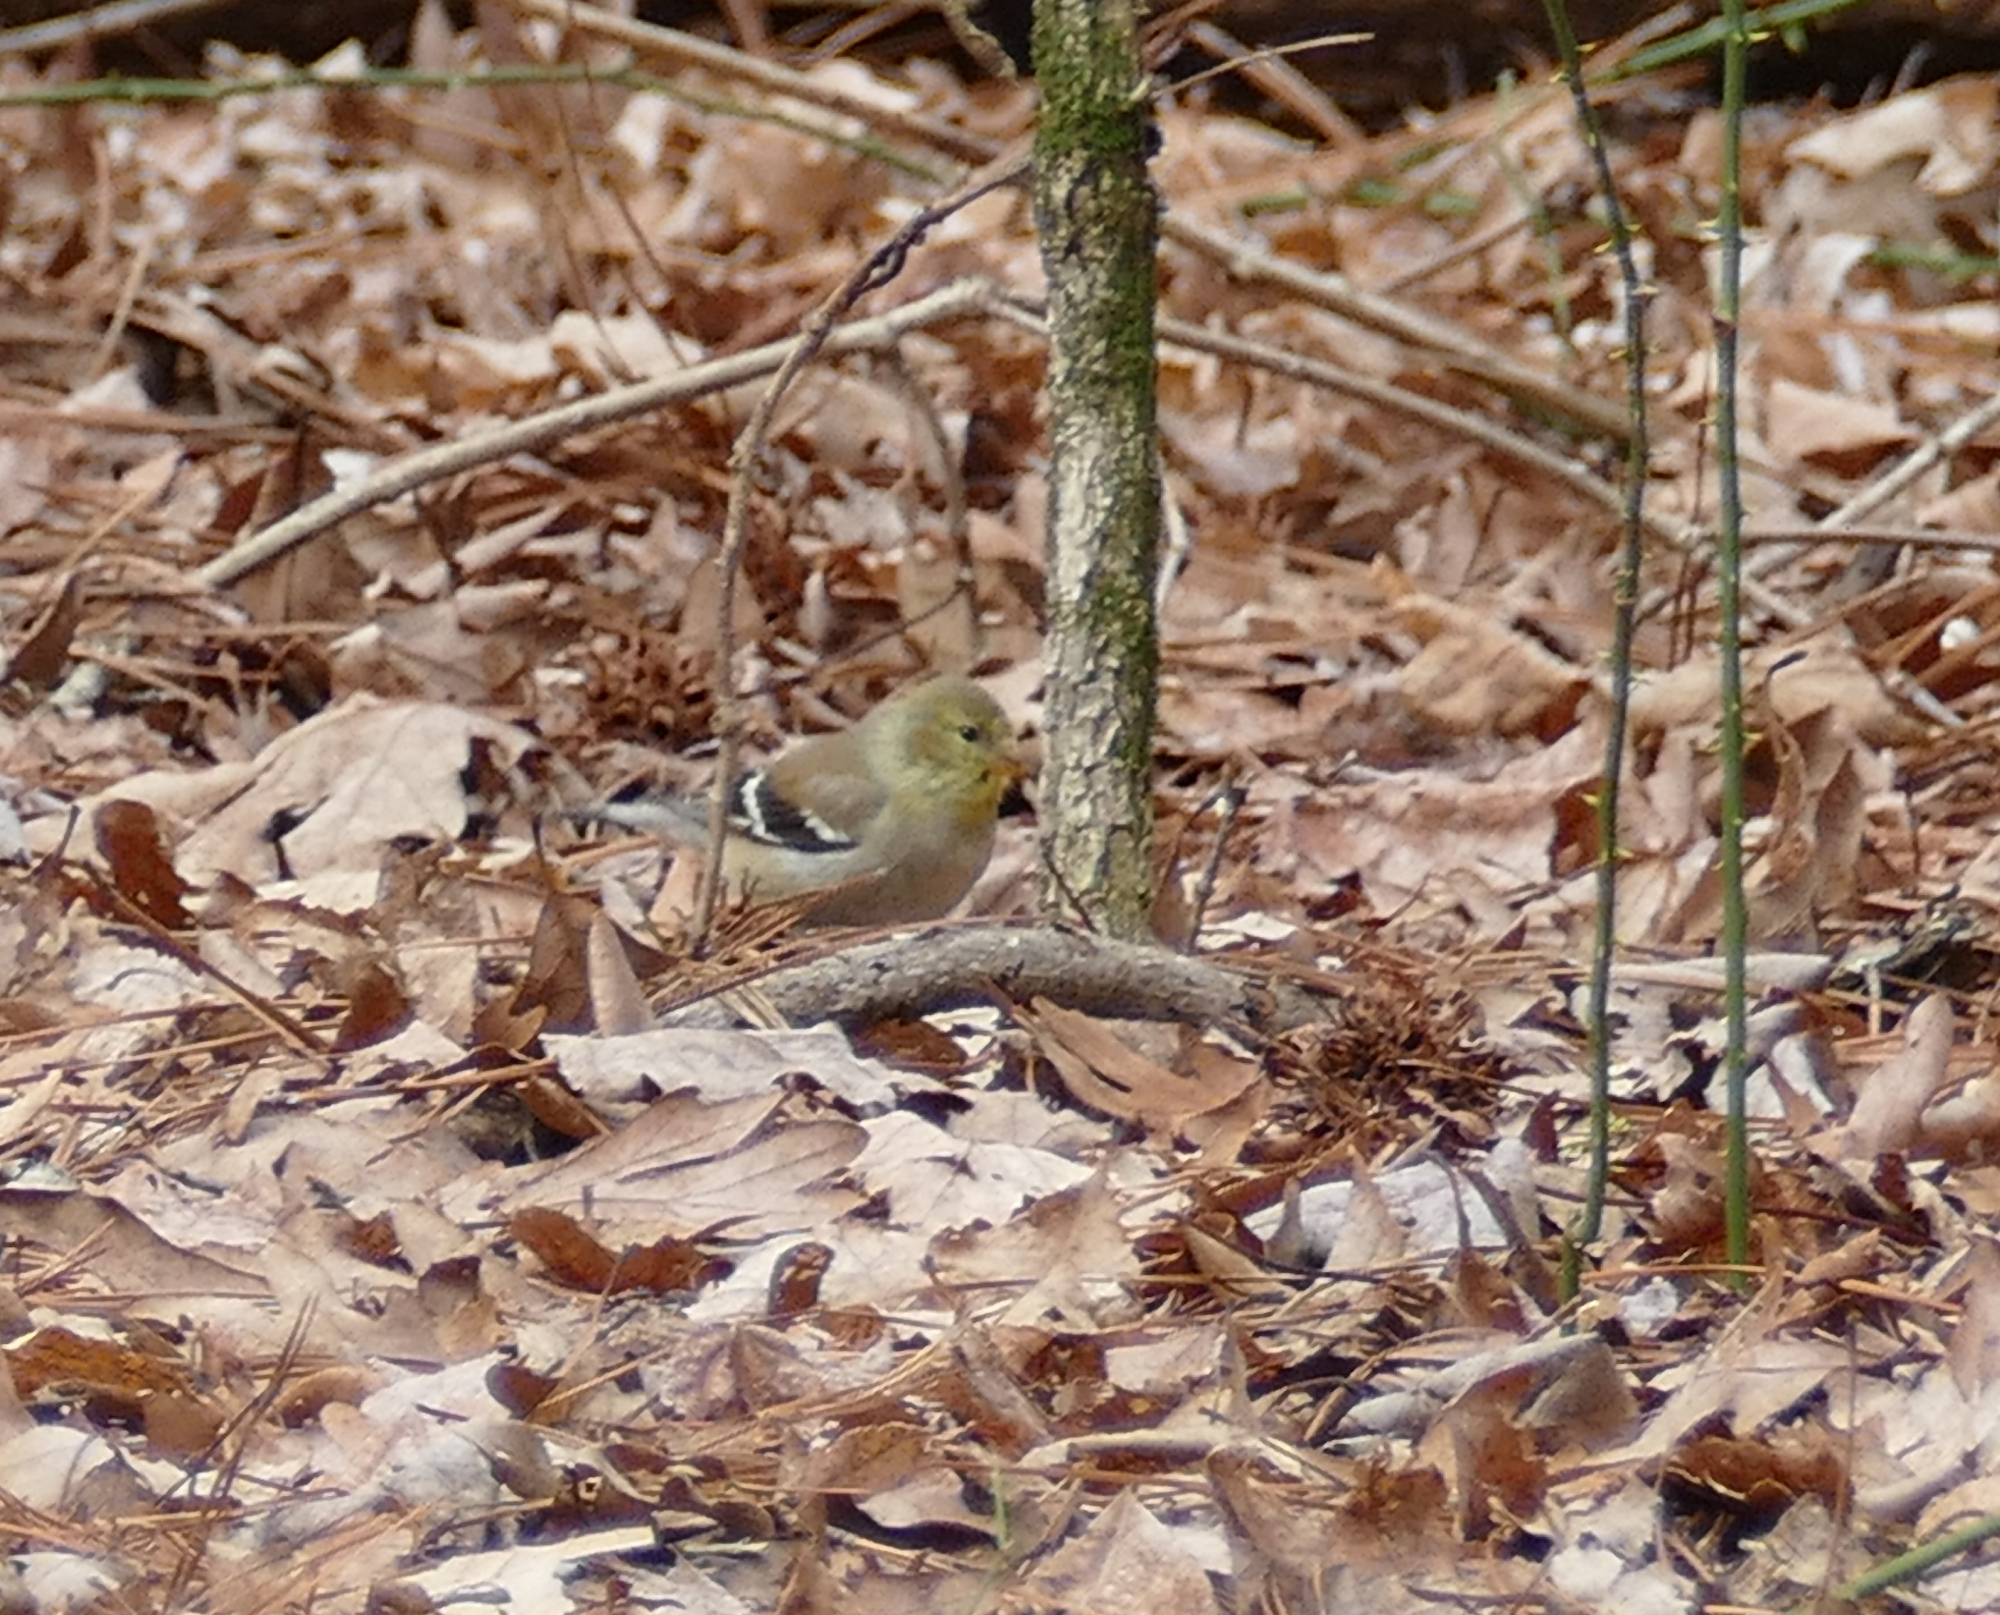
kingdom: Animalia
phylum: Chordata
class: Aves
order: Passeriformes
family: Fringillidae
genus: Spinus
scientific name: Spinus tristis
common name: American goldfinch
